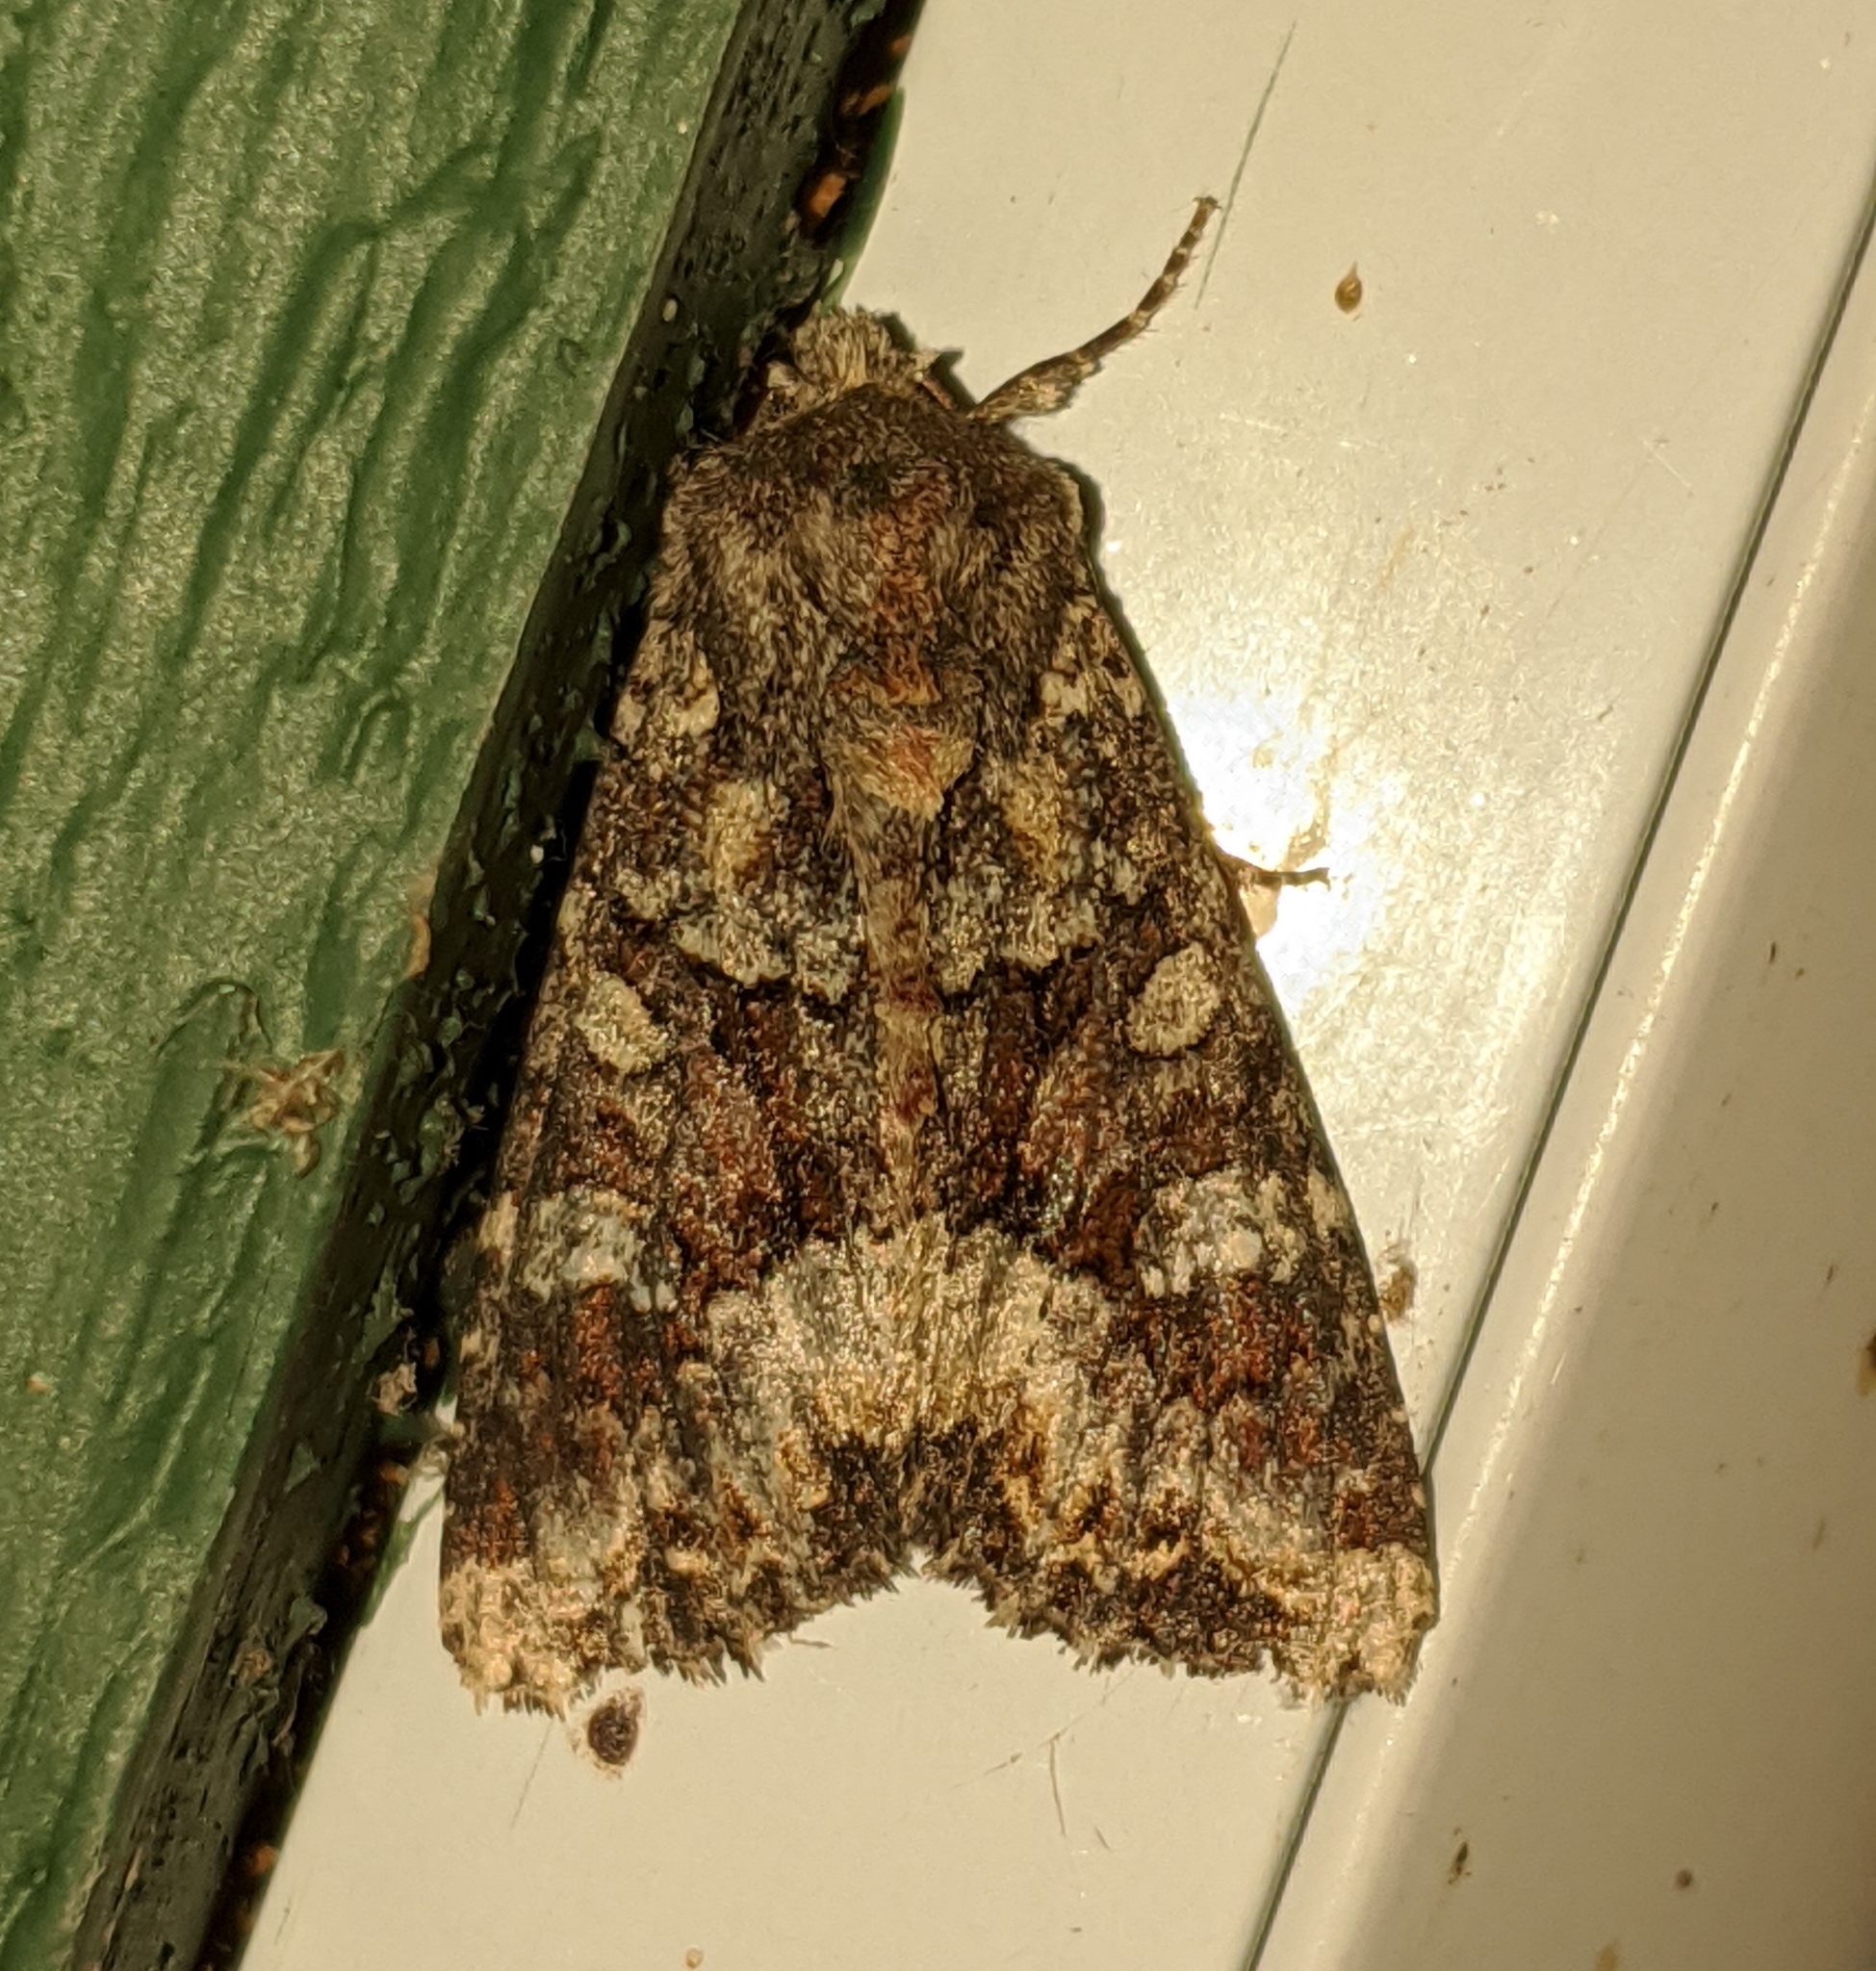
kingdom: Animalia
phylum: Arthropoda
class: Insecta
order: Lepidoptera
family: Noctuidae
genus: Apamea
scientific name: Apamea amputatrix
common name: Yellow-headed cutworm moth
